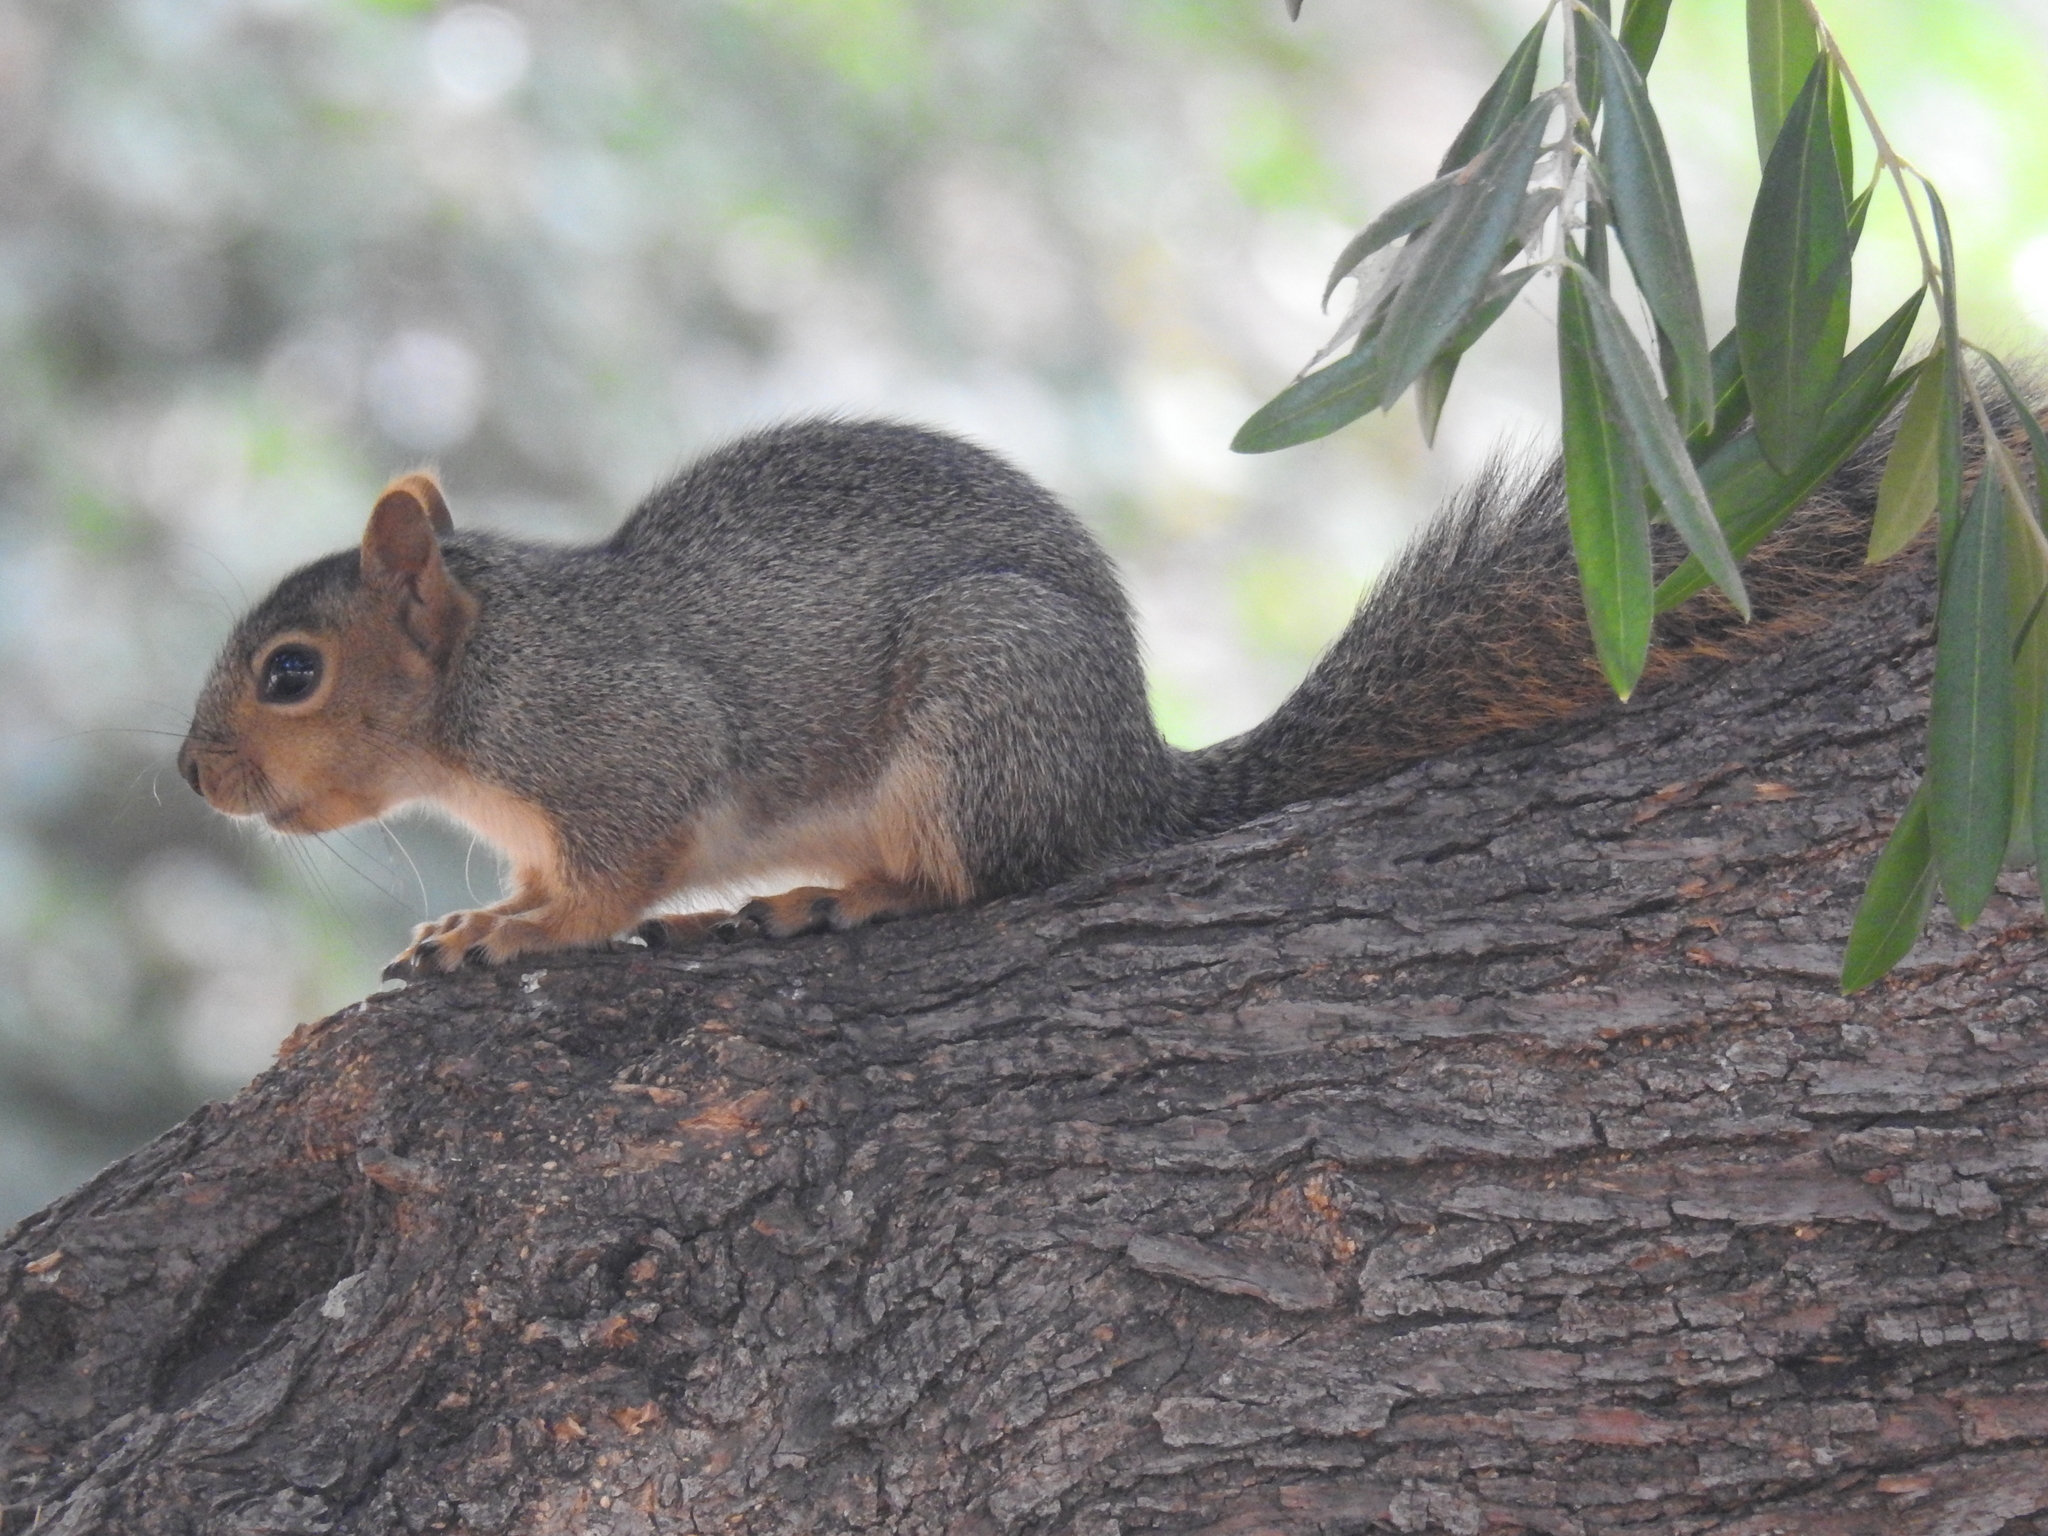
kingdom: Animalia
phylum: Chordata
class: Mammalia
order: Rodentia
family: Sciuridae
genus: Sciurus
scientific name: Sciurus niger
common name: Fox squirrel
